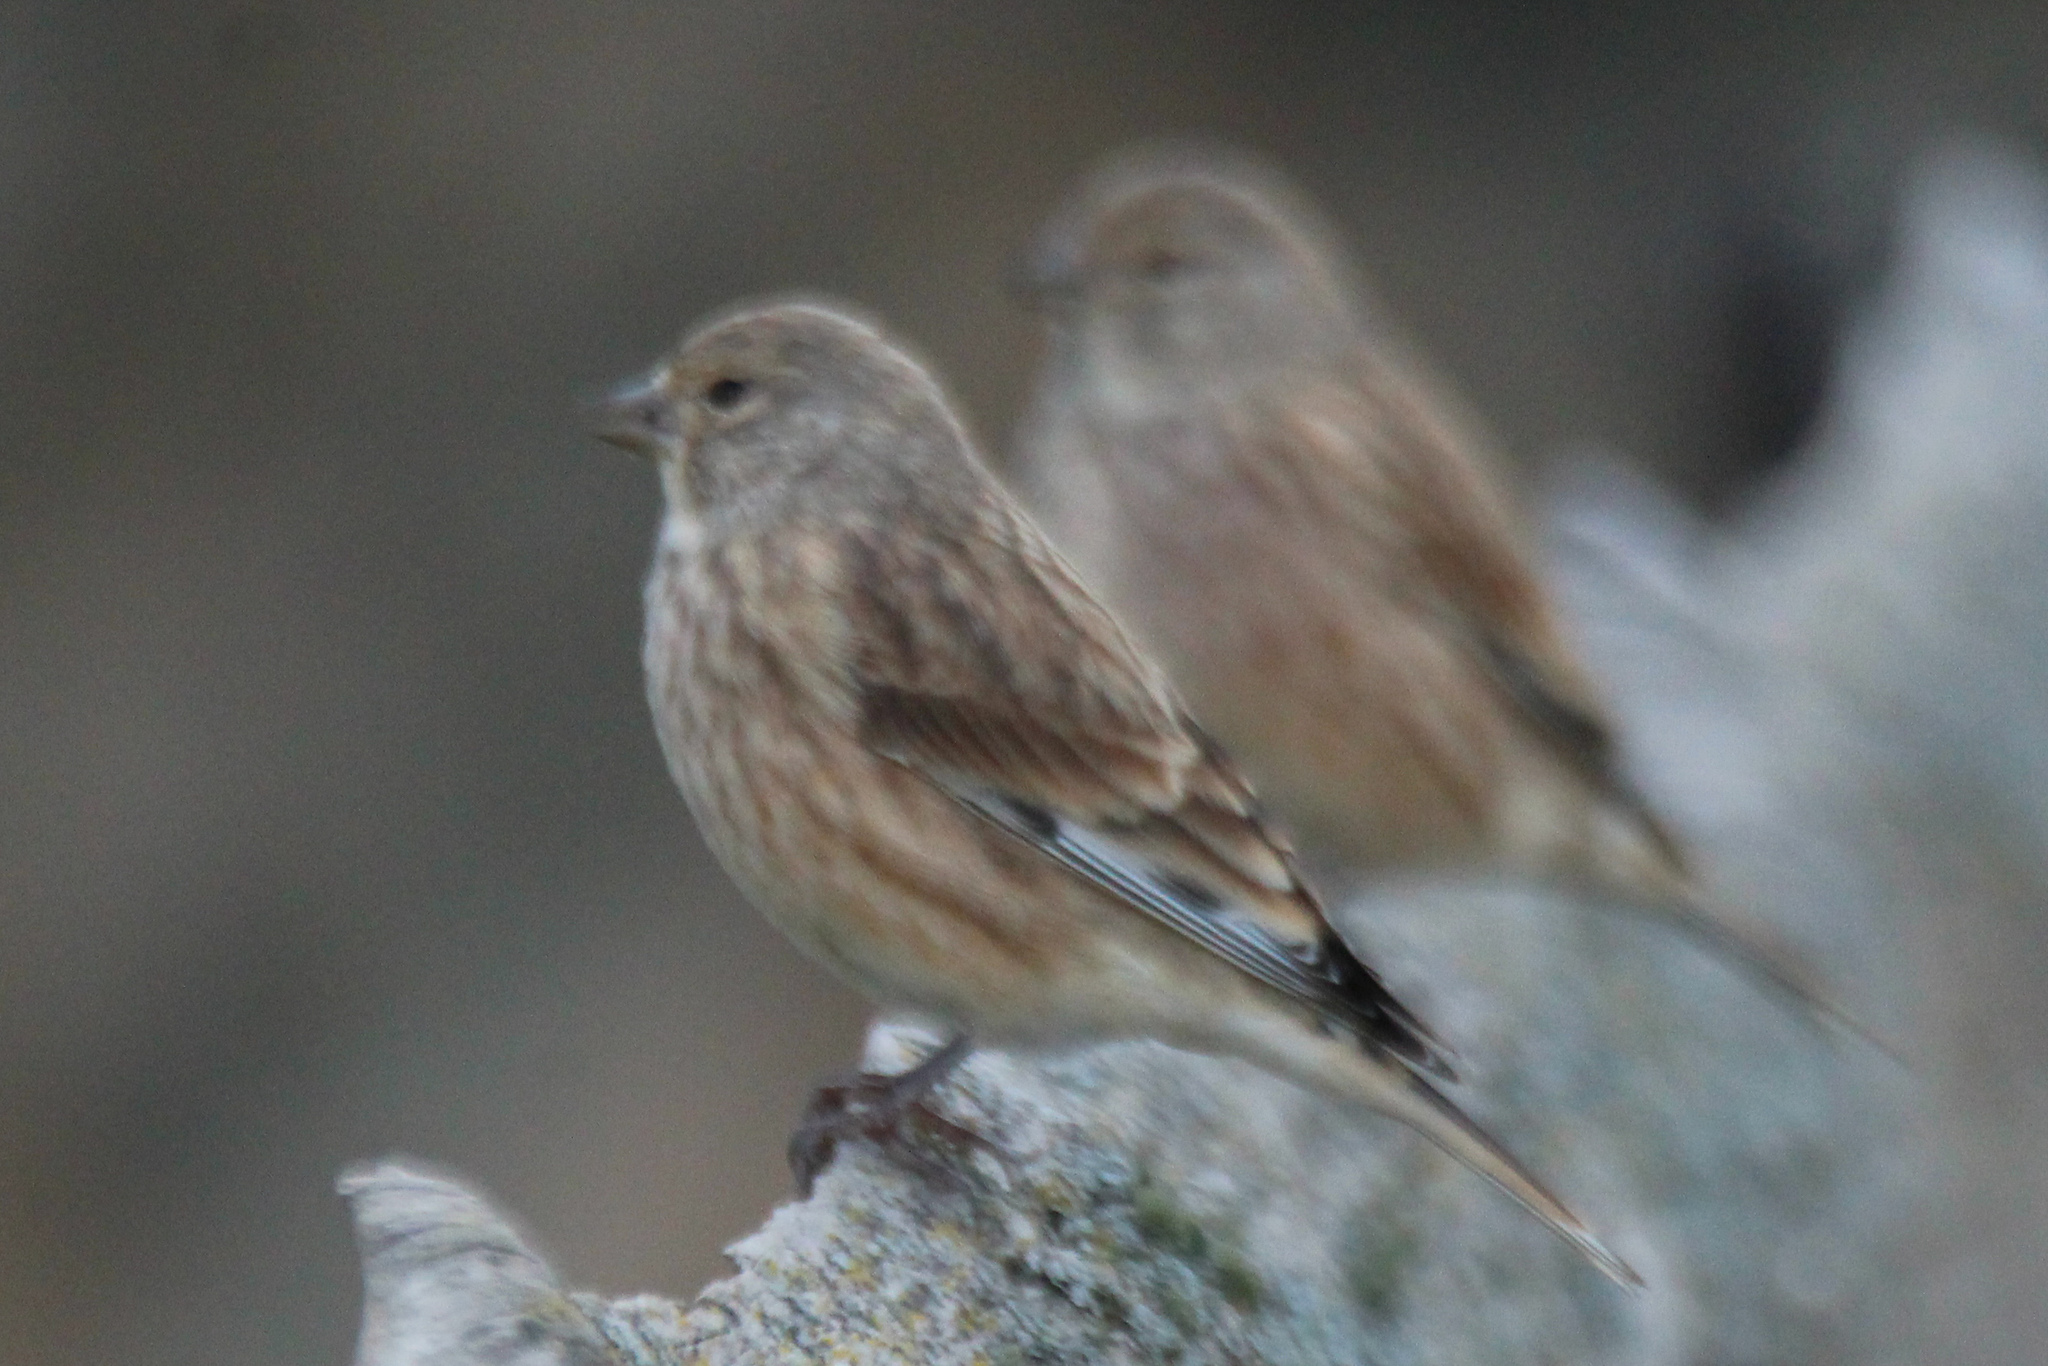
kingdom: Animalia
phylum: Chordata
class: Aves
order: Passeriformes
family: Fringillidae
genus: Linaria
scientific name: Linaria cannabina
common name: Common linnet
